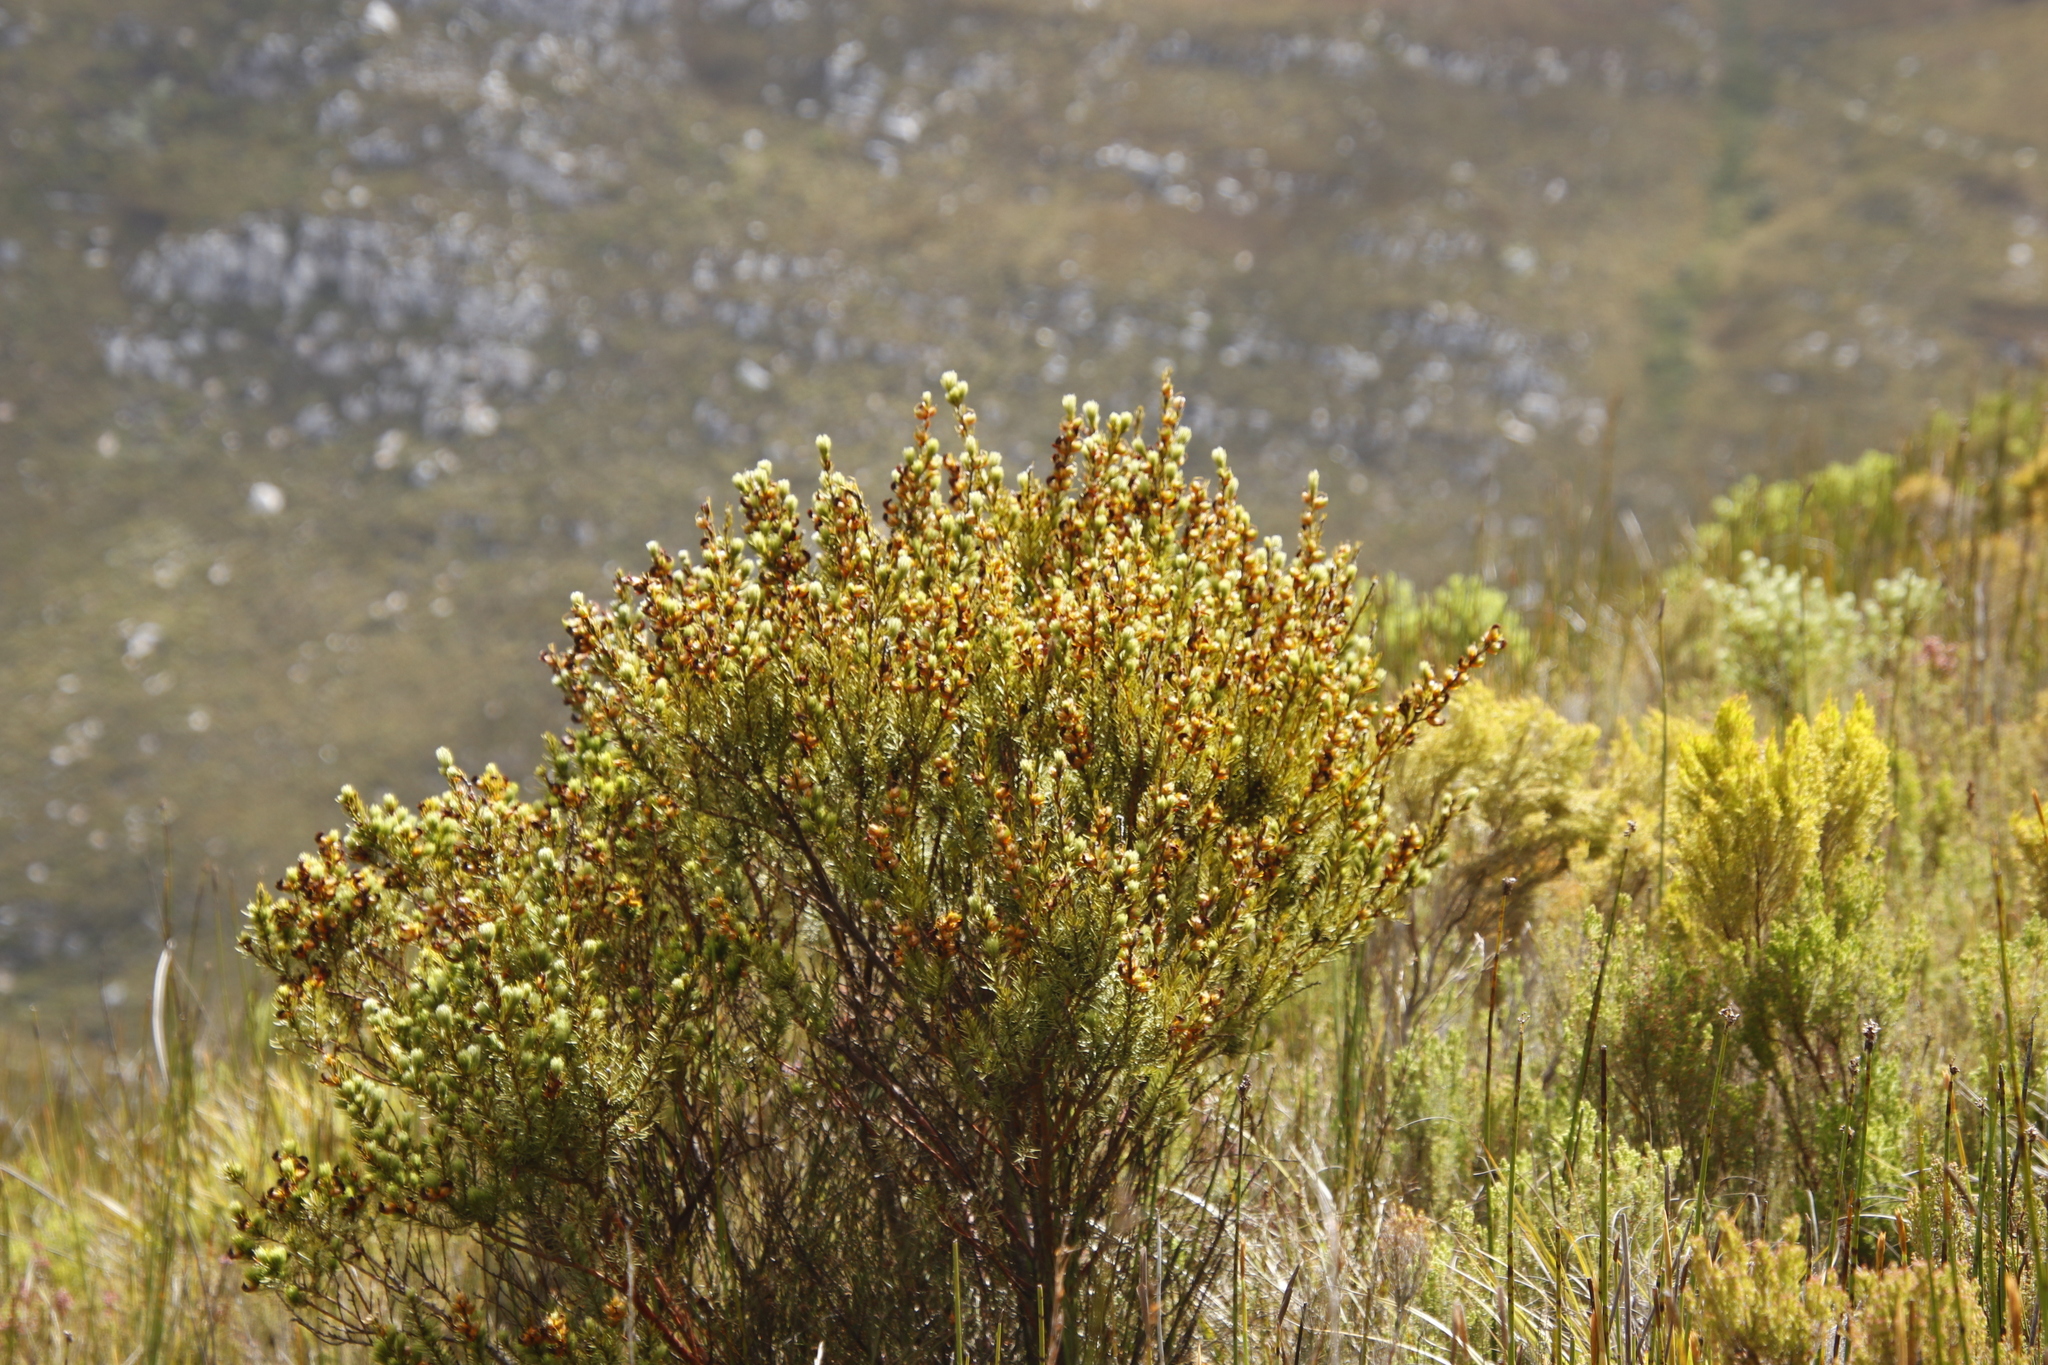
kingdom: Plantae
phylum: Tracheophyta
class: Magnoliopsida
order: Fabales
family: Fabaceae
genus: Cyclopia
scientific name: Cyclopia meyeriana
